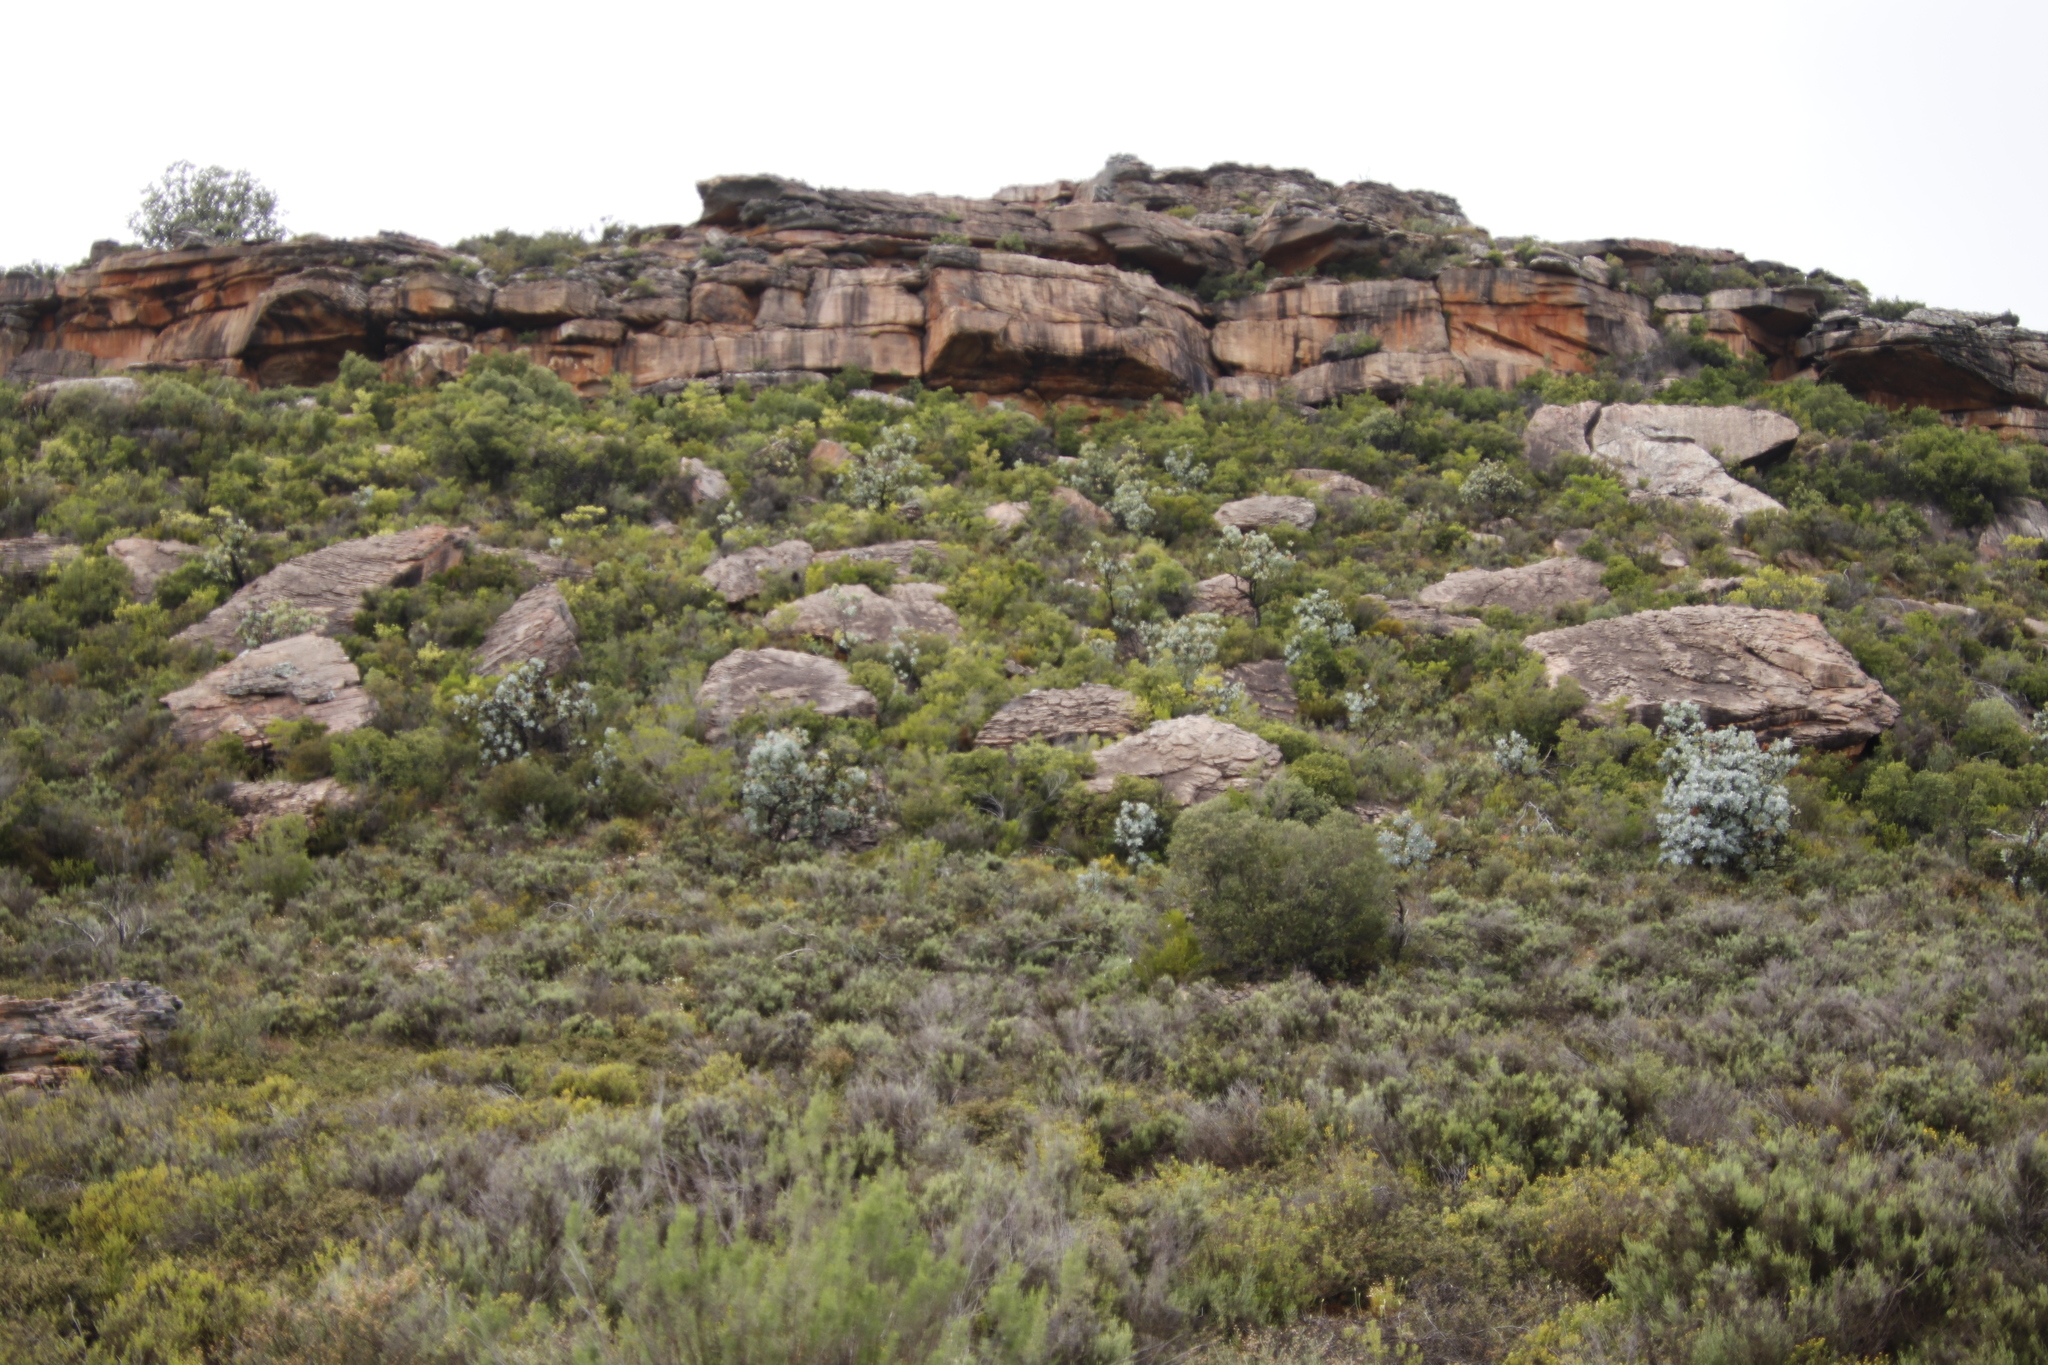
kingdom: Plantae
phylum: Tracheophyta
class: Magnoliopsida
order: Proteales
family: Proteaceae
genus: Protea
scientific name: Protea nitida
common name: Tree protea
